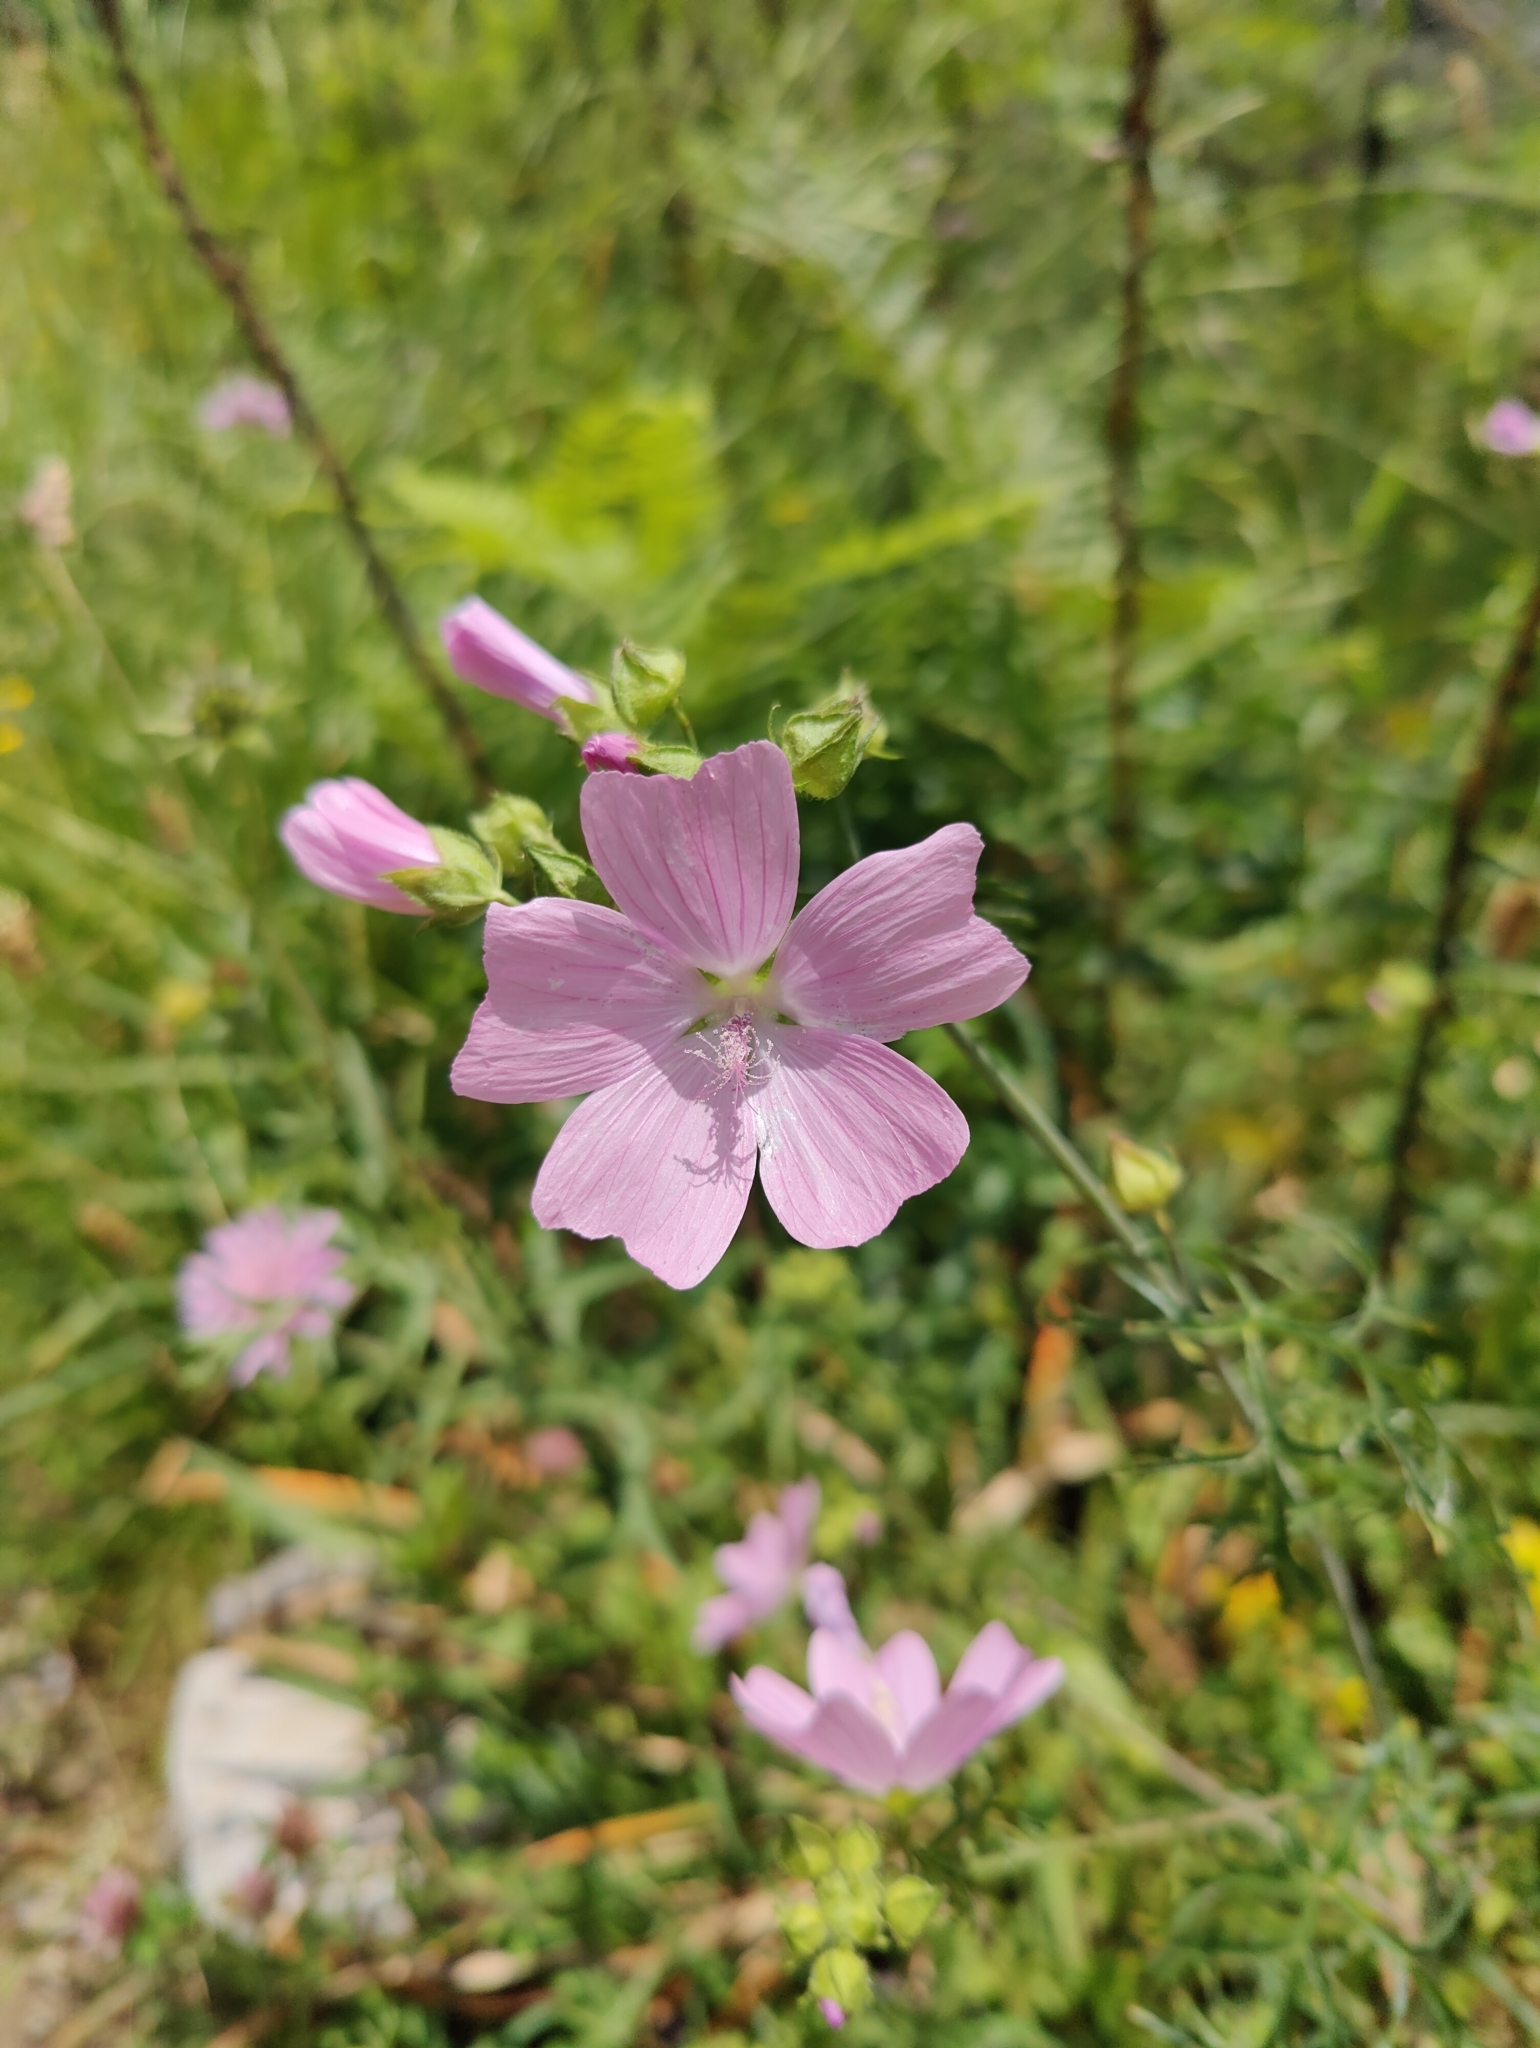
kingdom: Plantae
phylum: Tracheophyta
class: Magnoliopsida
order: Malvales
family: Malvaceae
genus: Malva
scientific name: Malva moschata
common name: Musk mallow
